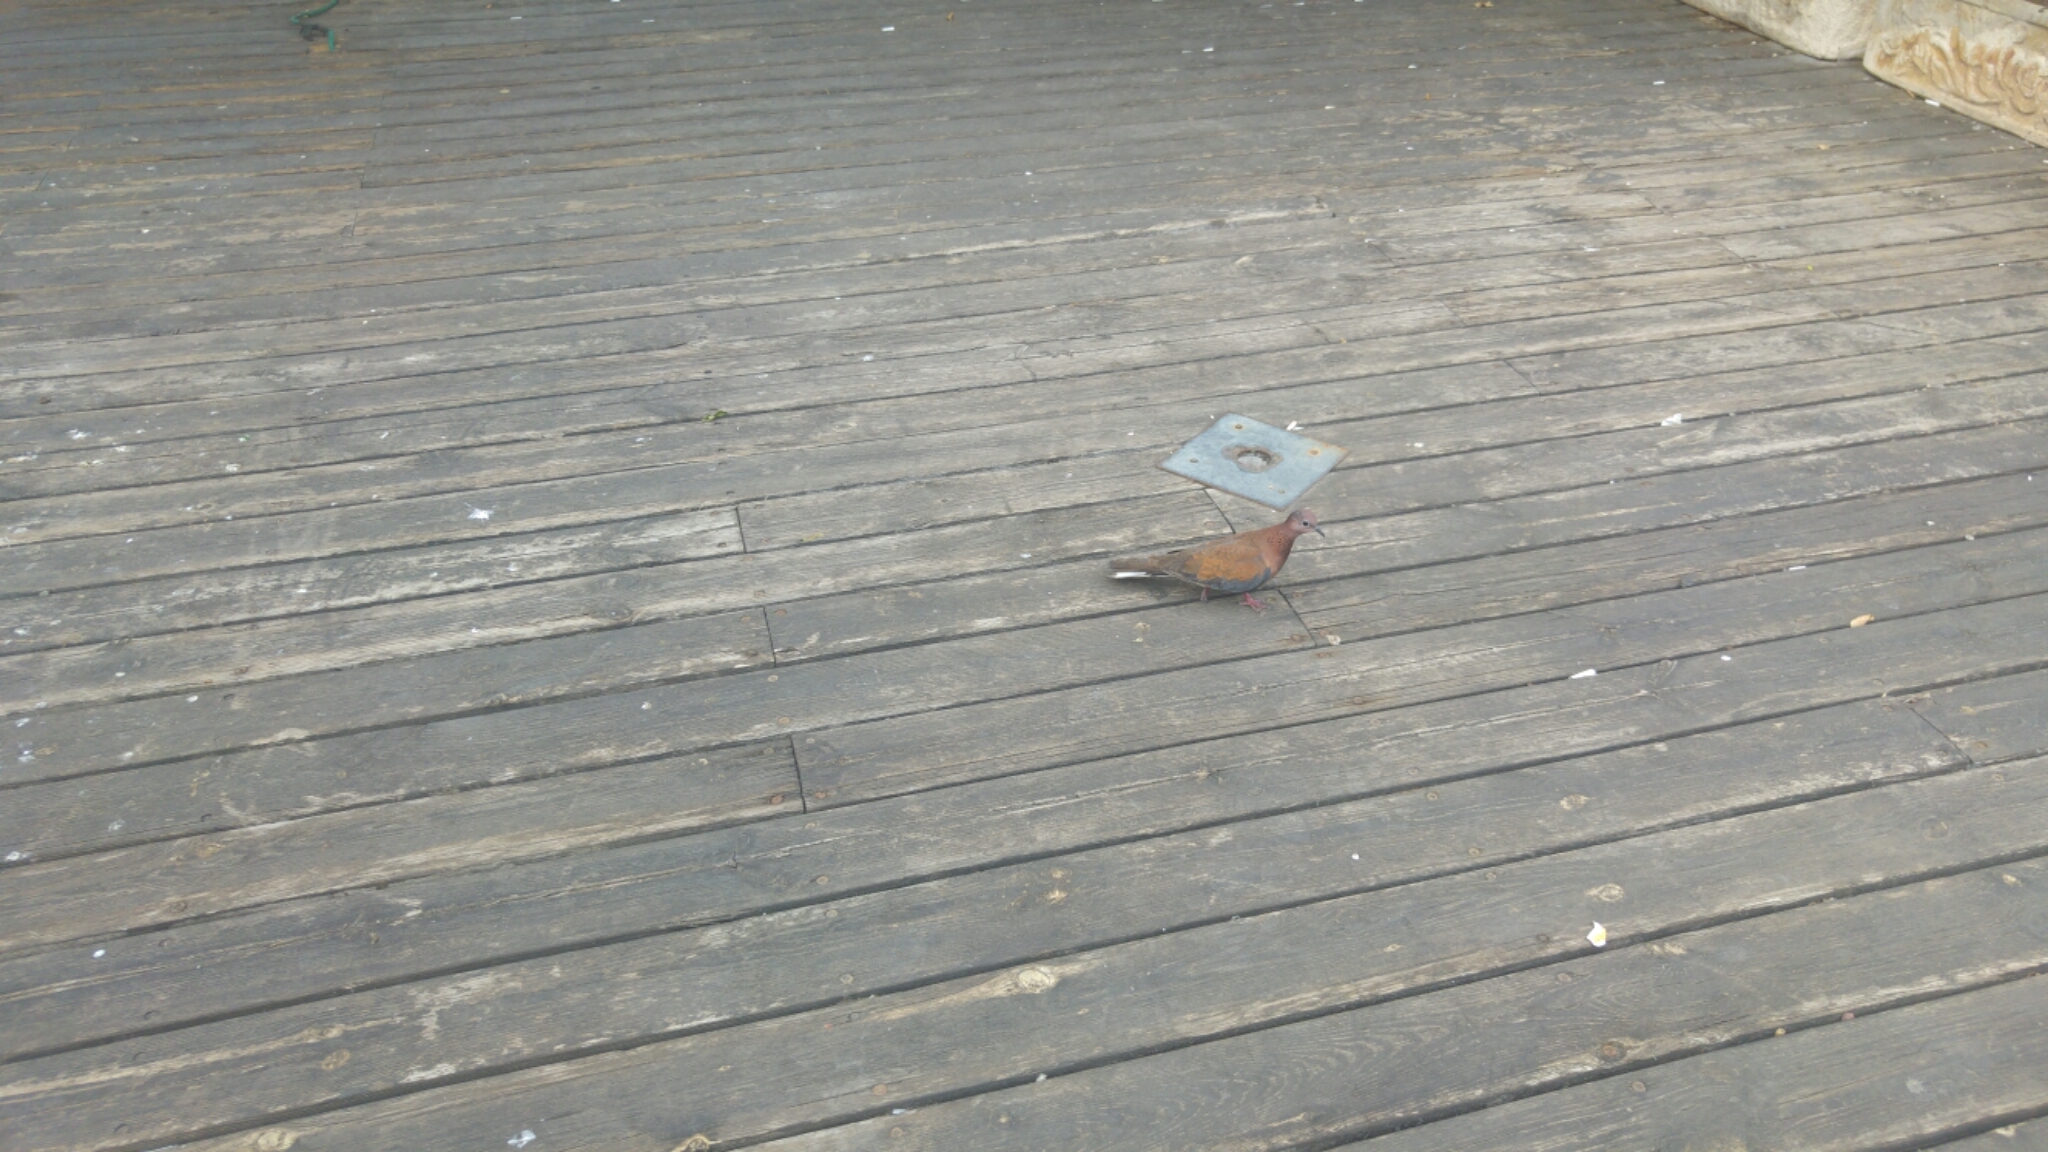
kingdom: Animalia
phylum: Chordata
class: Aves
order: Columbiformes
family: Columbidae
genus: Spilopelia
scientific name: Spilopelia senegalensis
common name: Laughing dove
